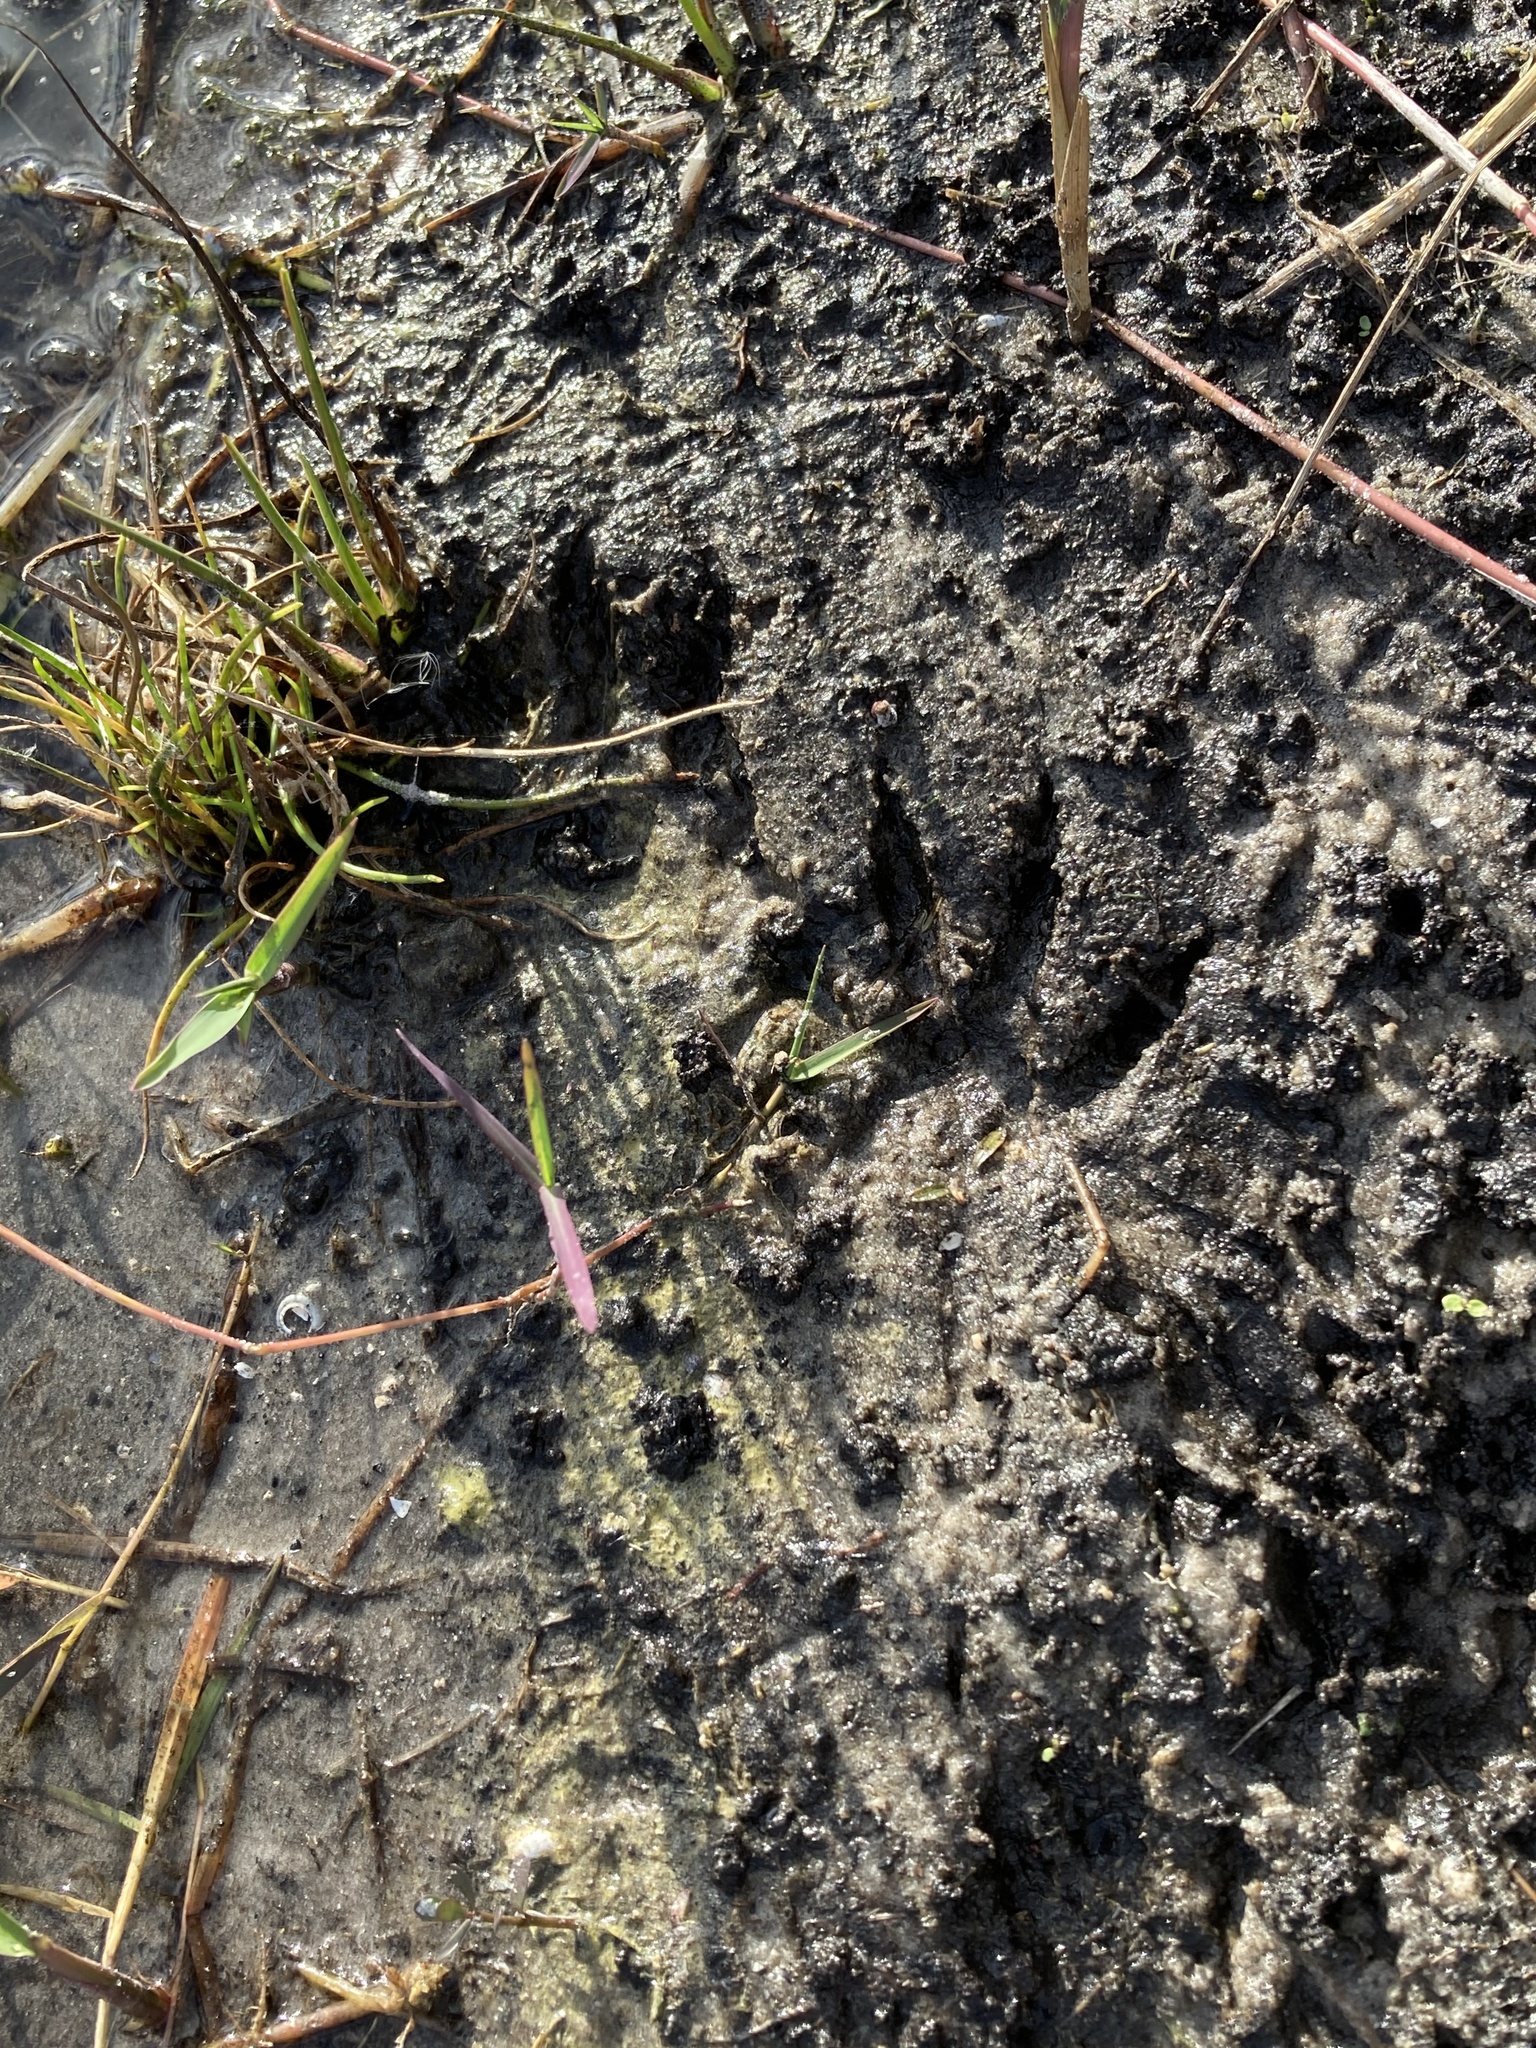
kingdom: Animalia
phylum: Chordata
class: Mammalia
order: Carnivora
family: Procyonidae
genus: Procyon
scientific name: Procyon lotor
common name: Raccoon
